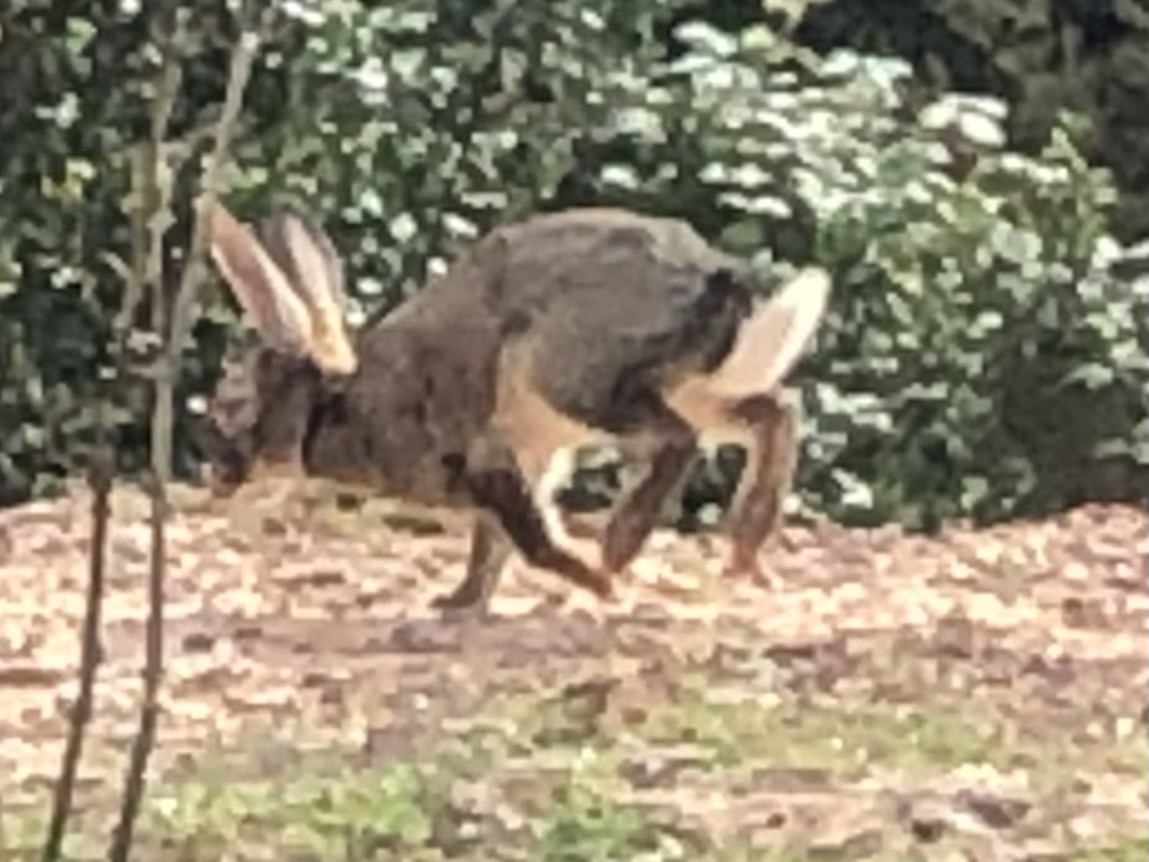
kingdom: Animalia
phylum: Chordata
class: Mammalia
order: Lagomorpha
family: Leporidae
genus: Oryctolagus
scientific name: Oryctolagus cuniculus
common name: European rabbit
